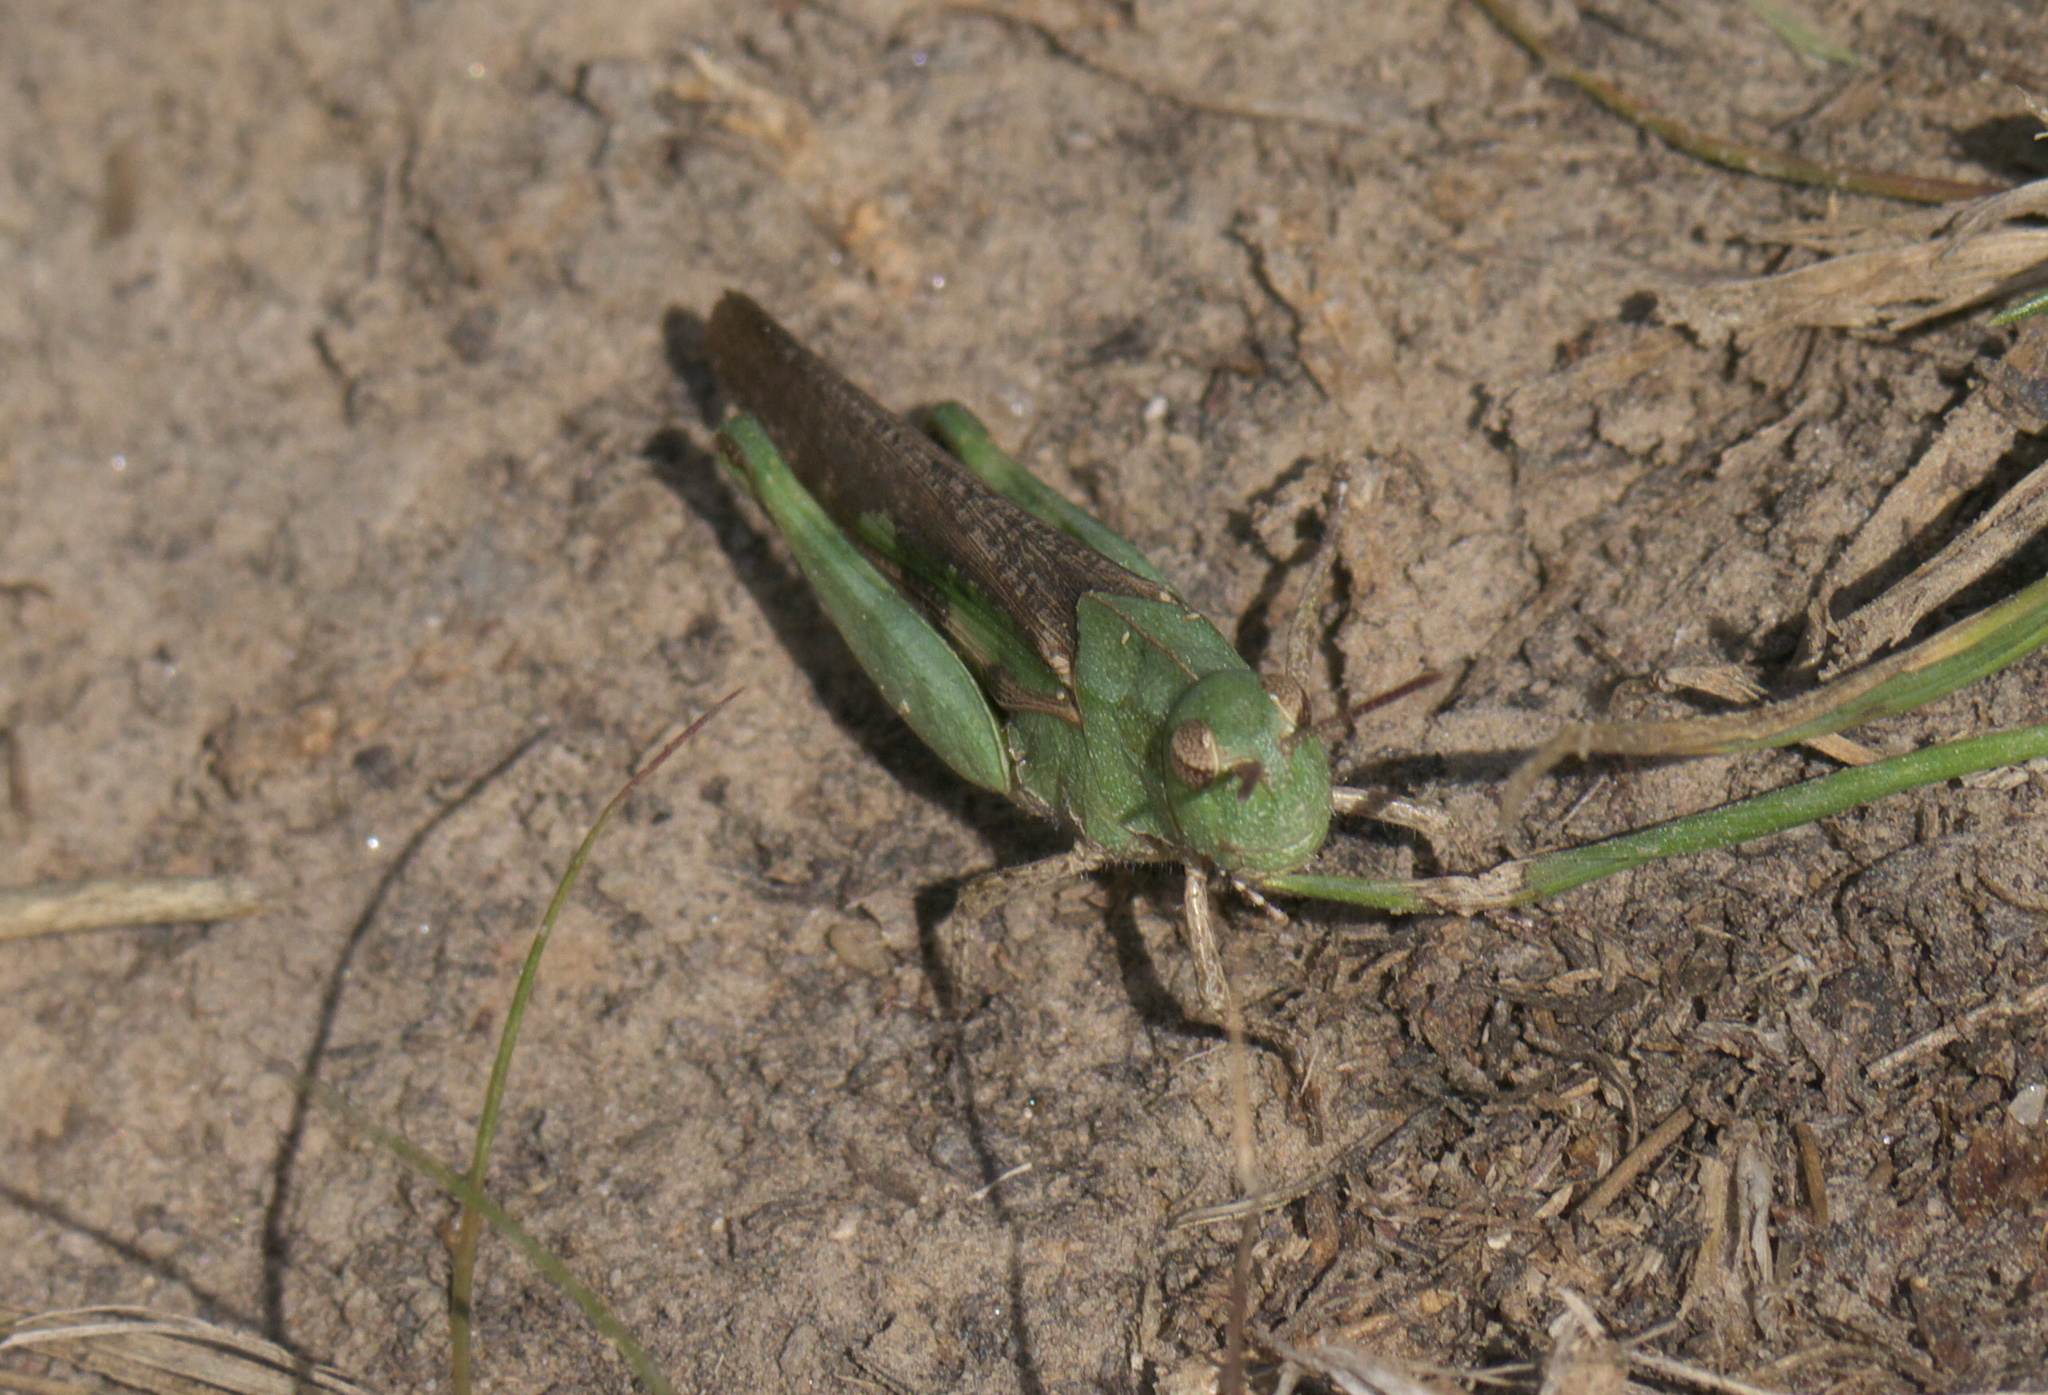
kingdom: Animalia
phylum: Arthropoda
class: Insecta
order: Orthoptera
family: Acrididae
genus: Chortophaga
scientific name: Chortophaga viridifasciata
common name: Green-striped grasshopper
